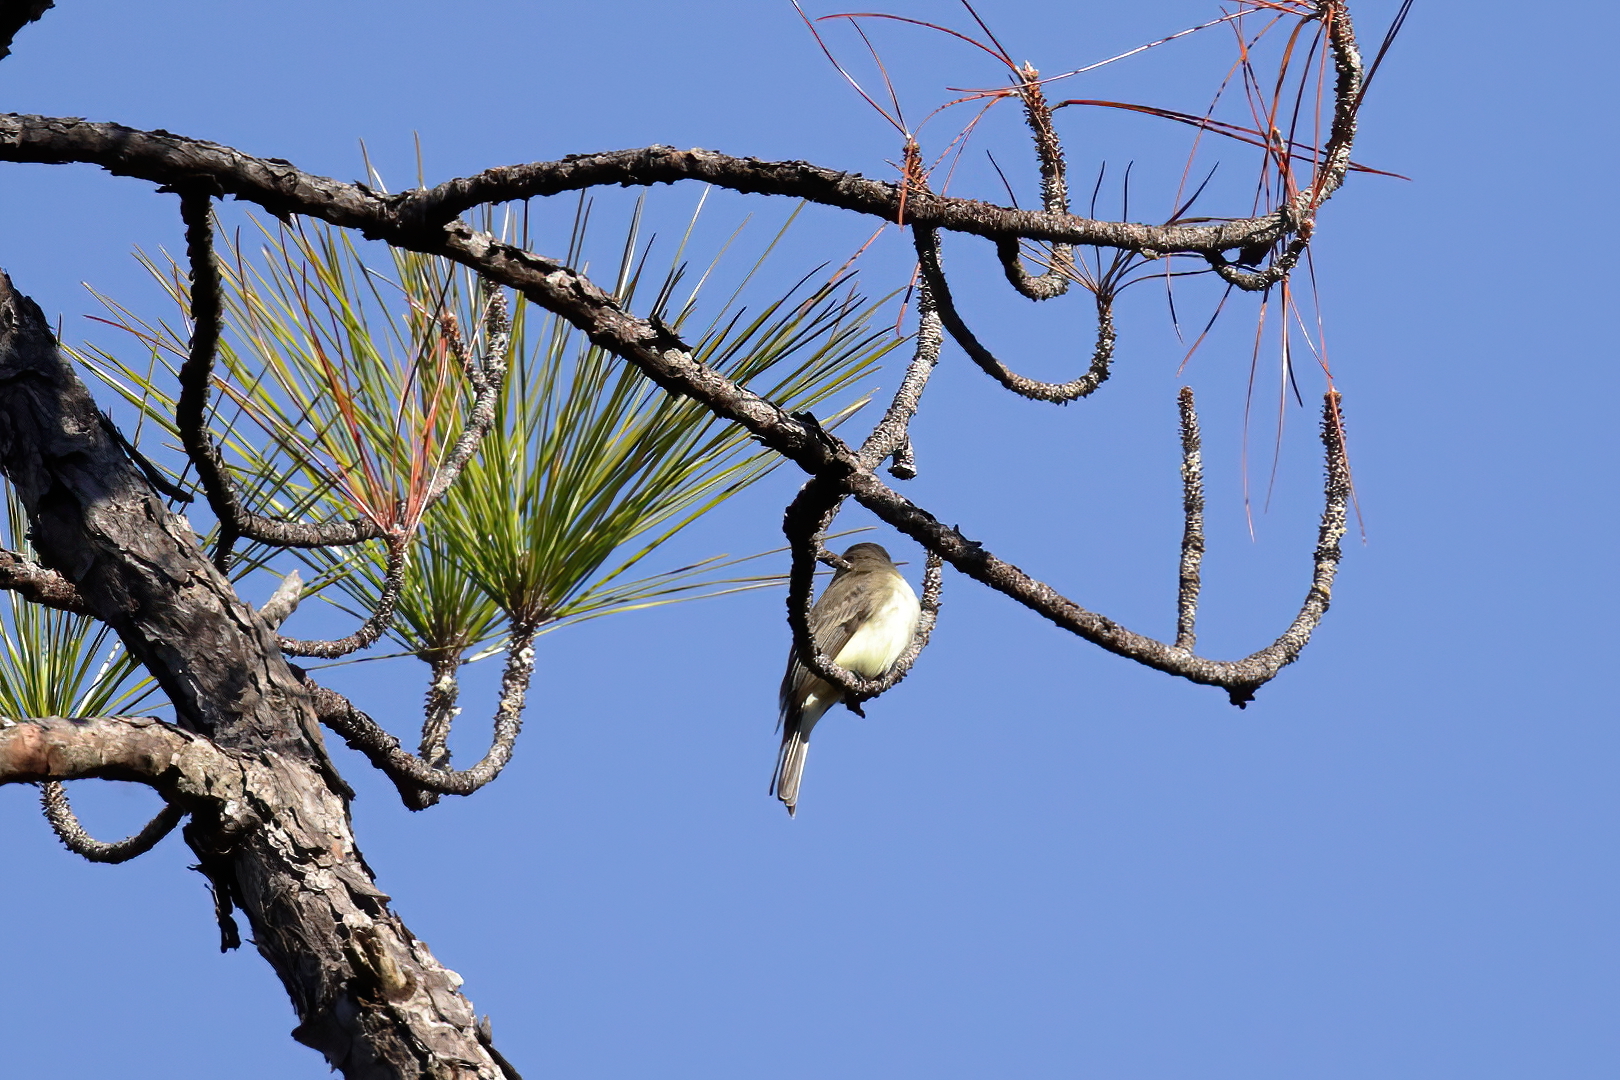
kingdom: Animalia
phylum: Chordata
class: Aves
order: Passeriformes
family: Tyrannidae
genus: Sayornis
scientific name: Sayornis phoebe
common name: Eastern phoebe
